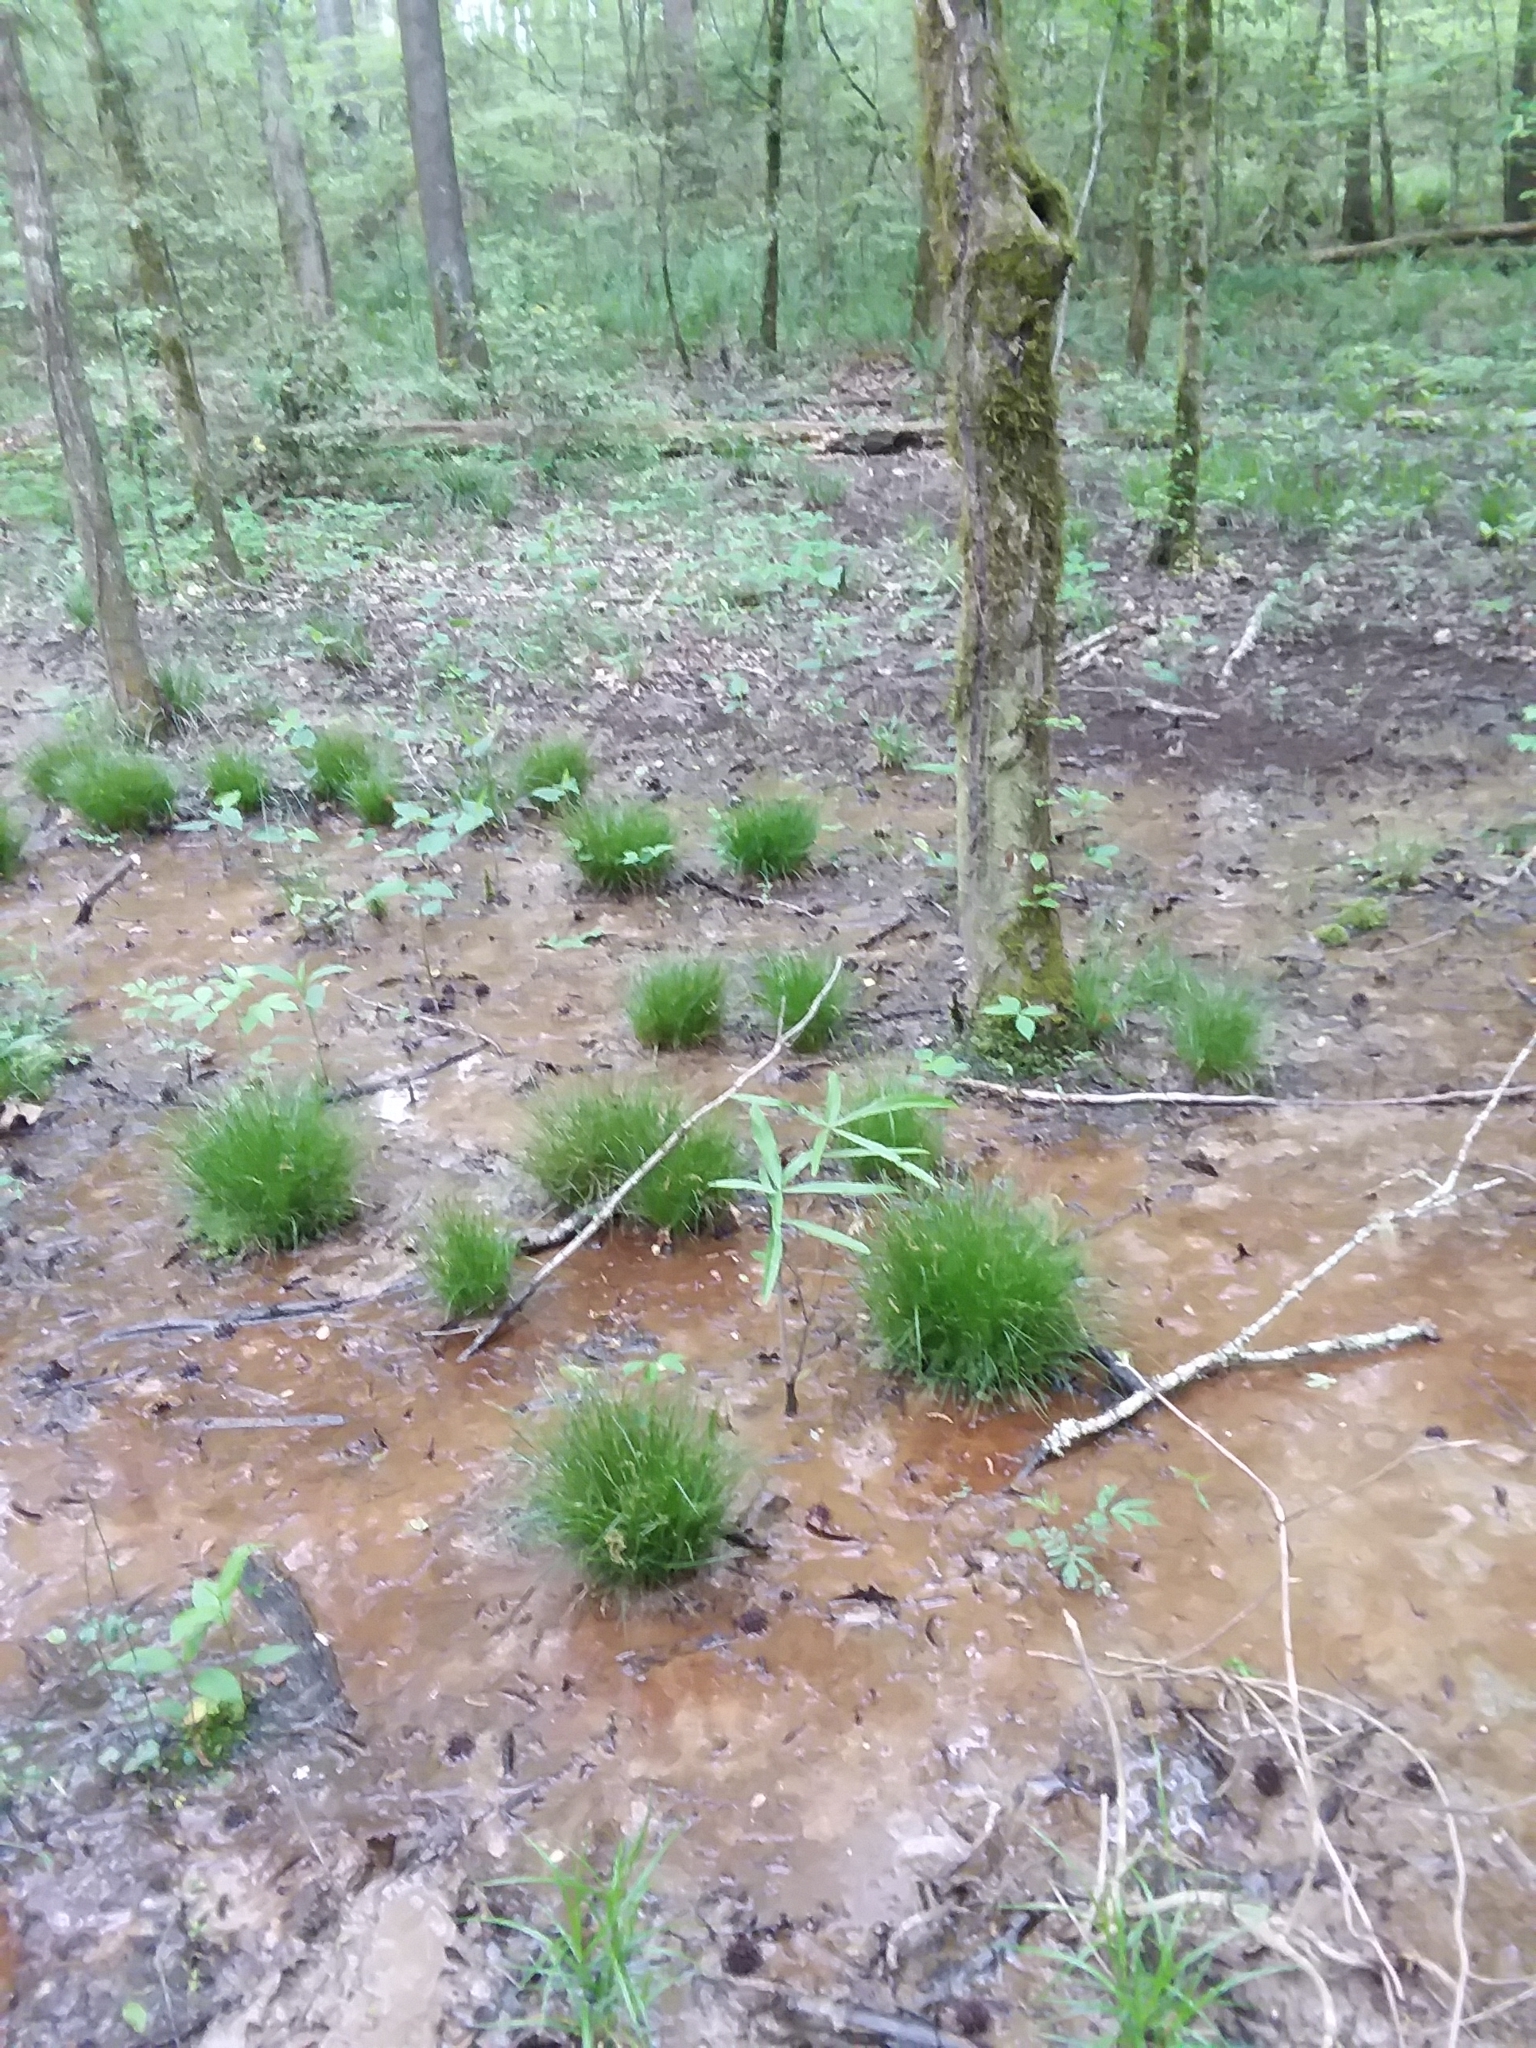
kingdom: Plantae
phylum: Tracheophyta
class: Liliopsida
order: Poales
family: Cyperaceae
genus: Carex
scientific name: Carex leptalea
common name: Bristly-stalked sedge
